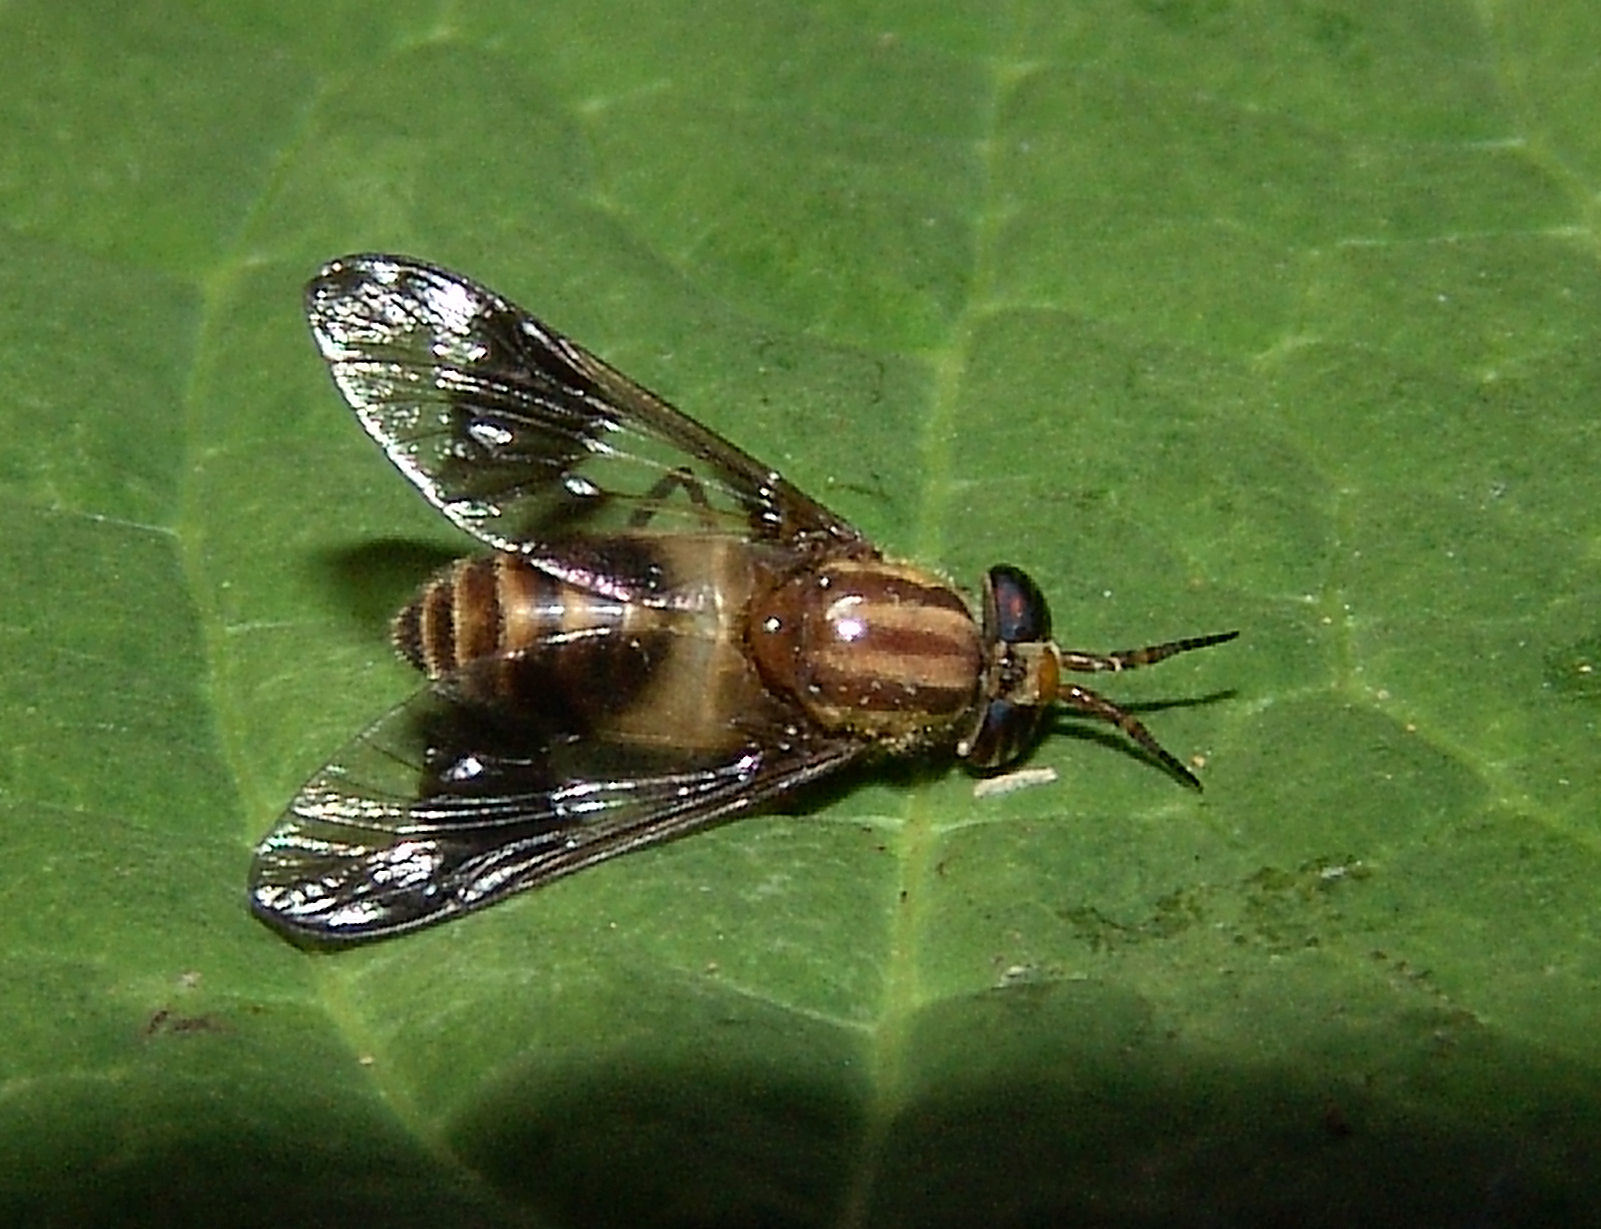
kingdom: Animalia
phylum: Arthropoda
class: Insecta
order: Diptera
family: Tabanidae
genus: Chrysops
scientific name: Chrysops flavidus
